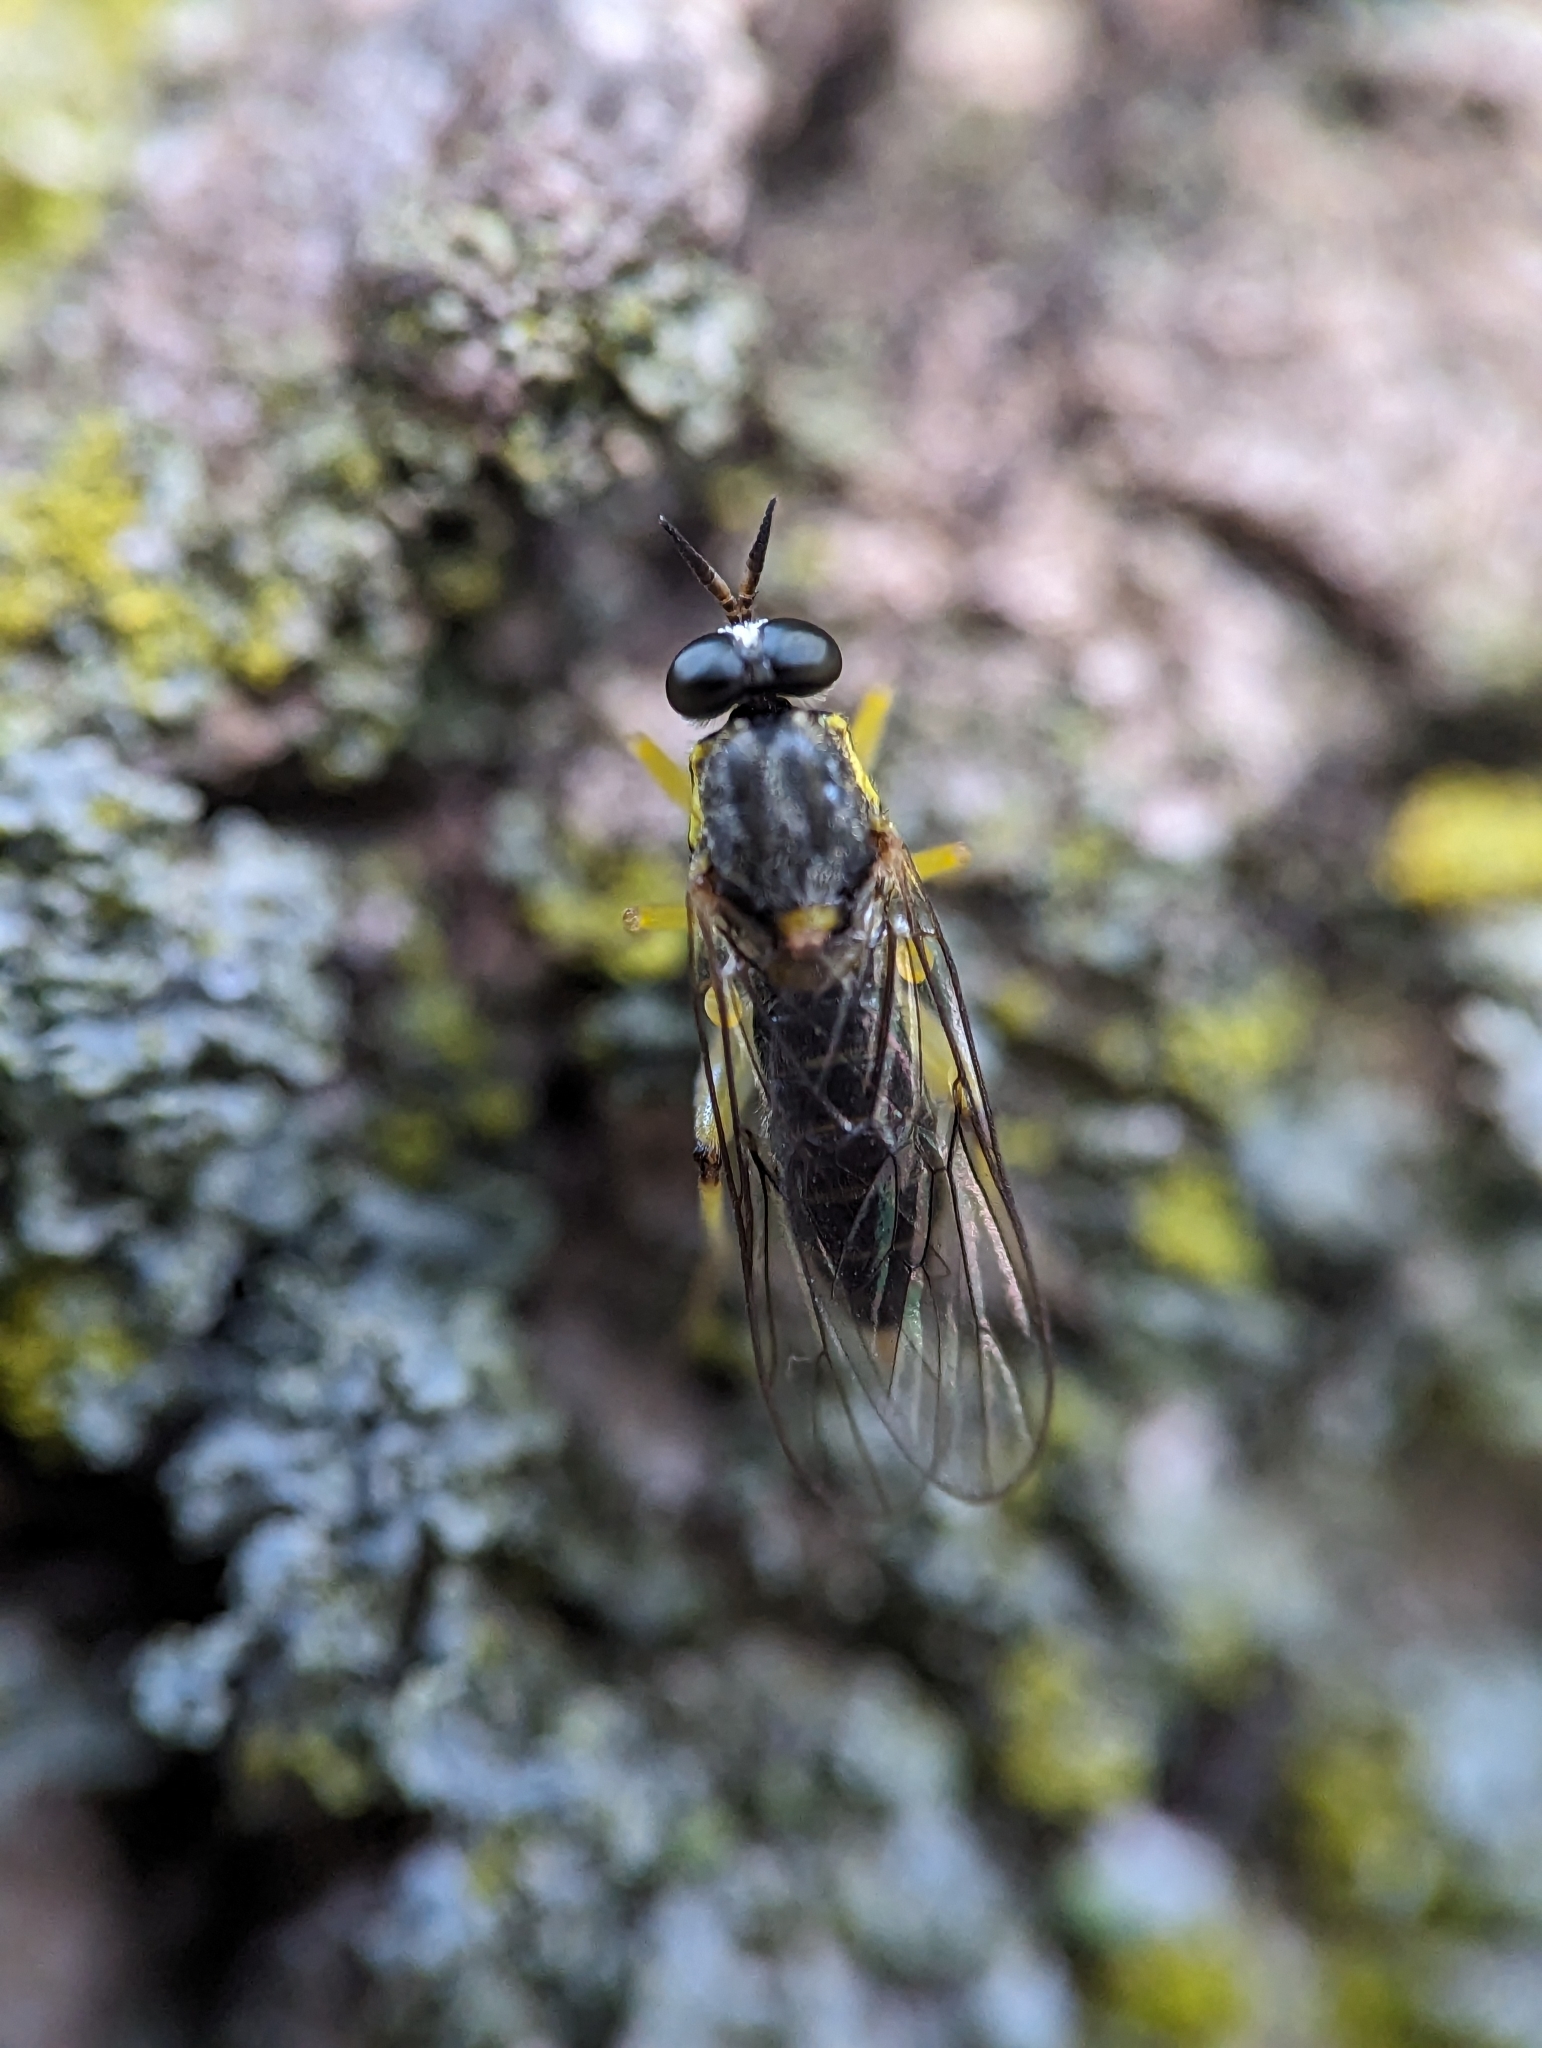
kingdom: Animalia
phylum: Arthropoda
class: Insecta
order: Diptera
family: Xylomyidae
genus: Solva
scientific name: Solva pallipes
